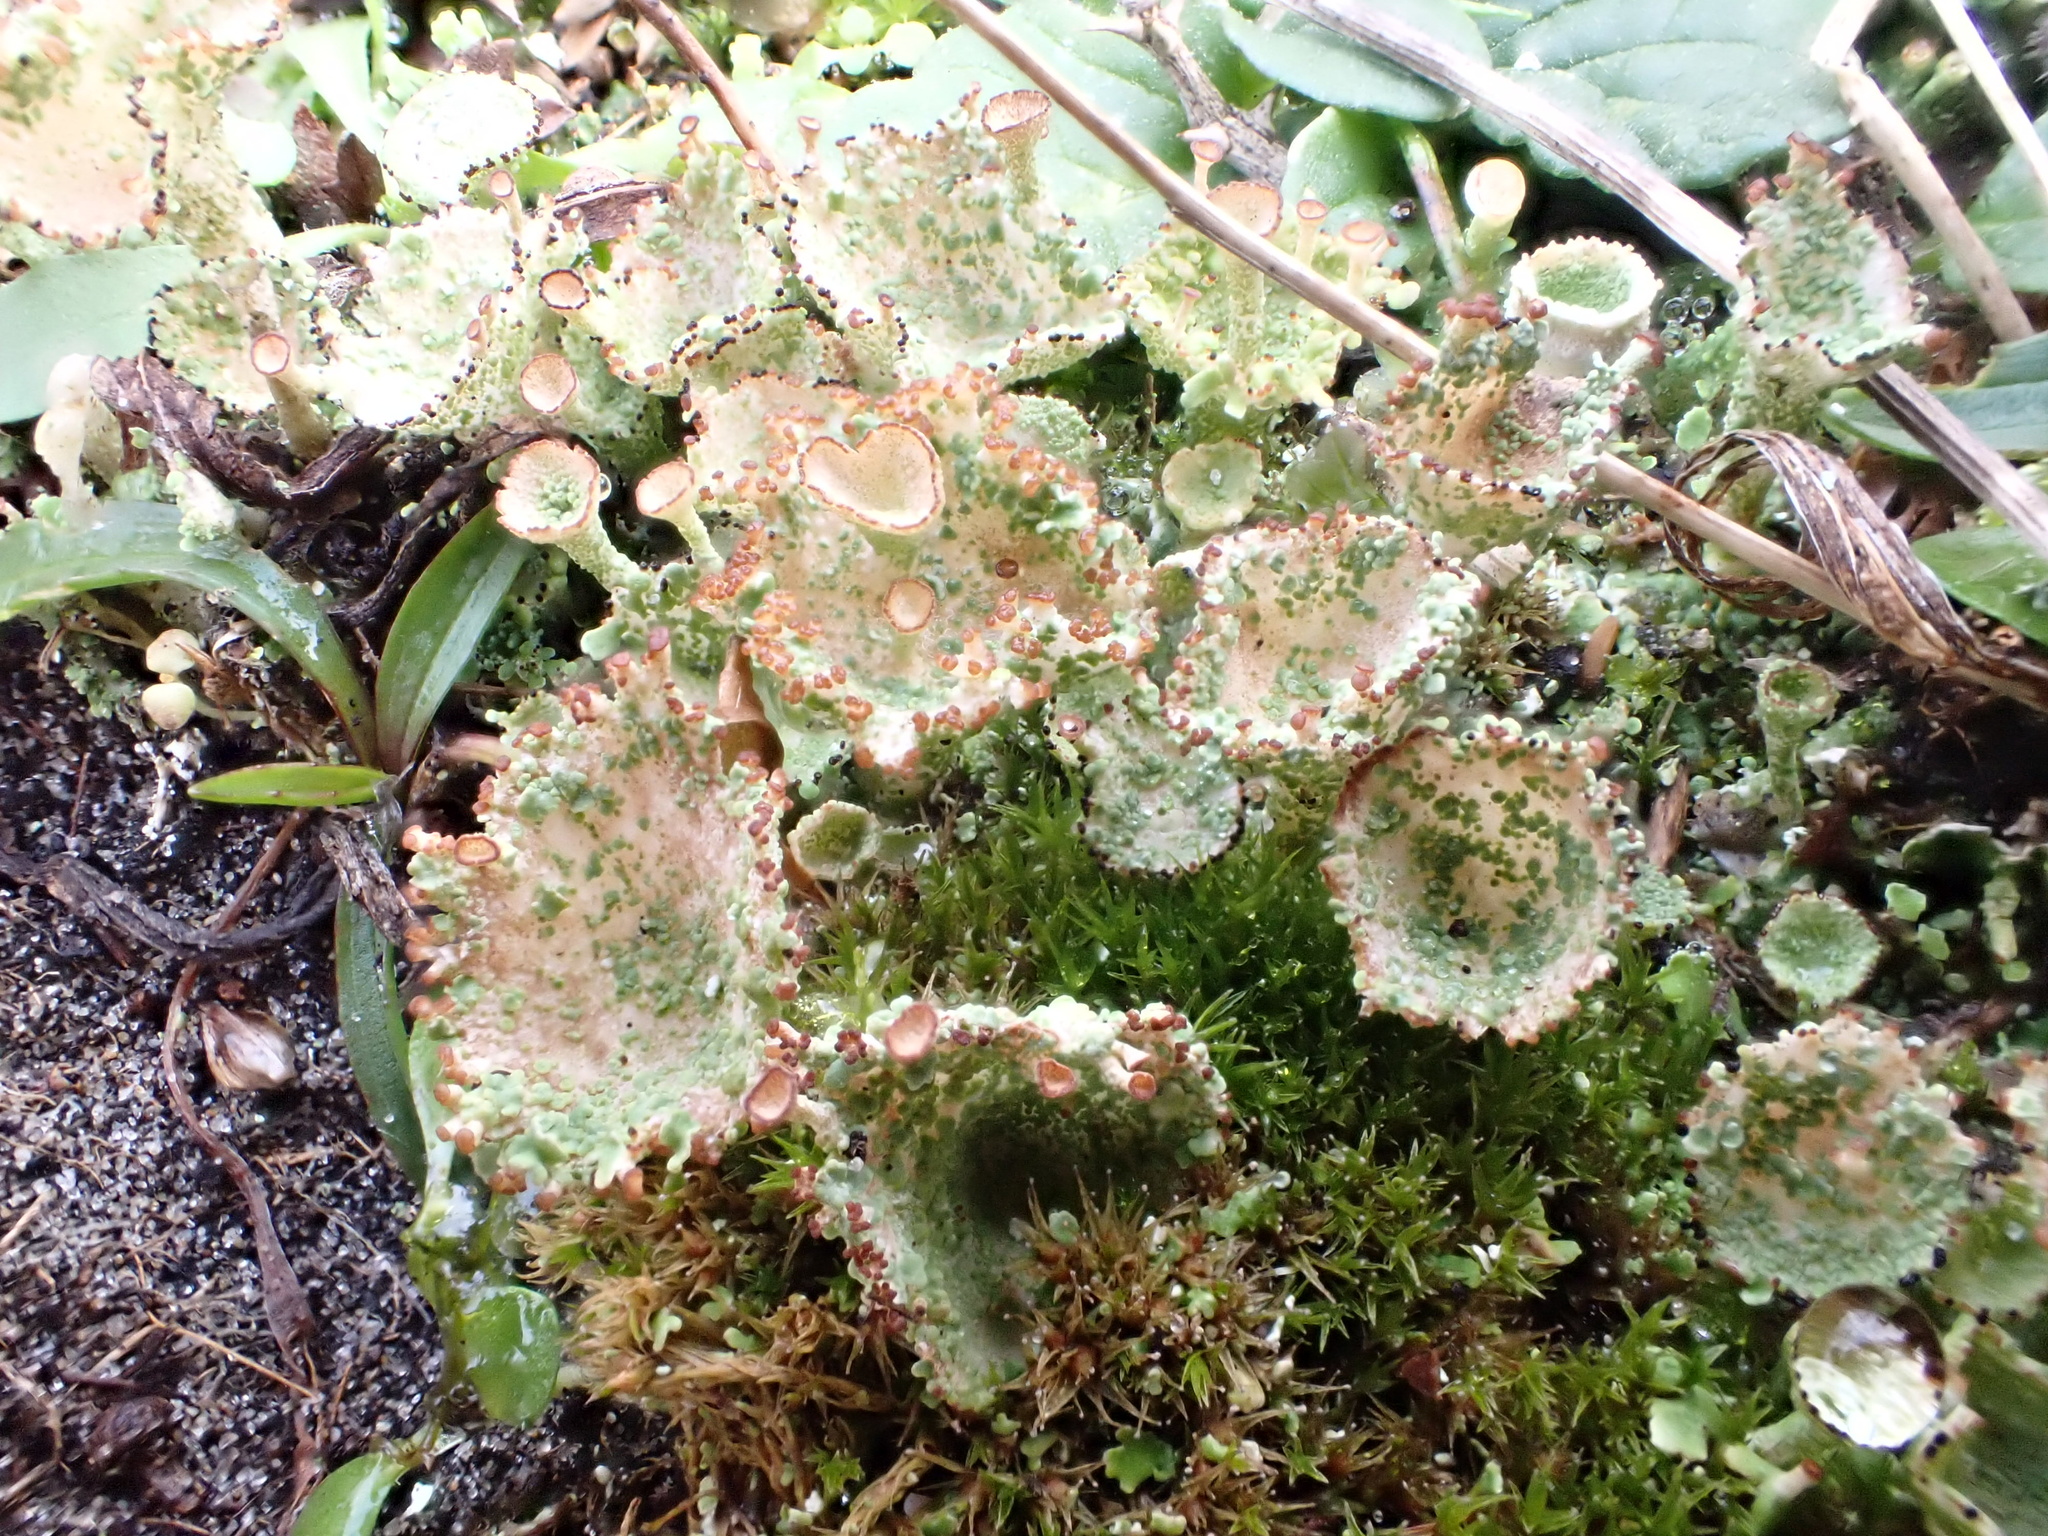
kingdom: Fungi
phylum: Ascomycota
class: Lecanoromycetes
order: Lecanorales
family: Cladoniaceae
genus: Cladonia
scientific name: Cladonia cervicornis
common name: Browned pixie-cup lichen
